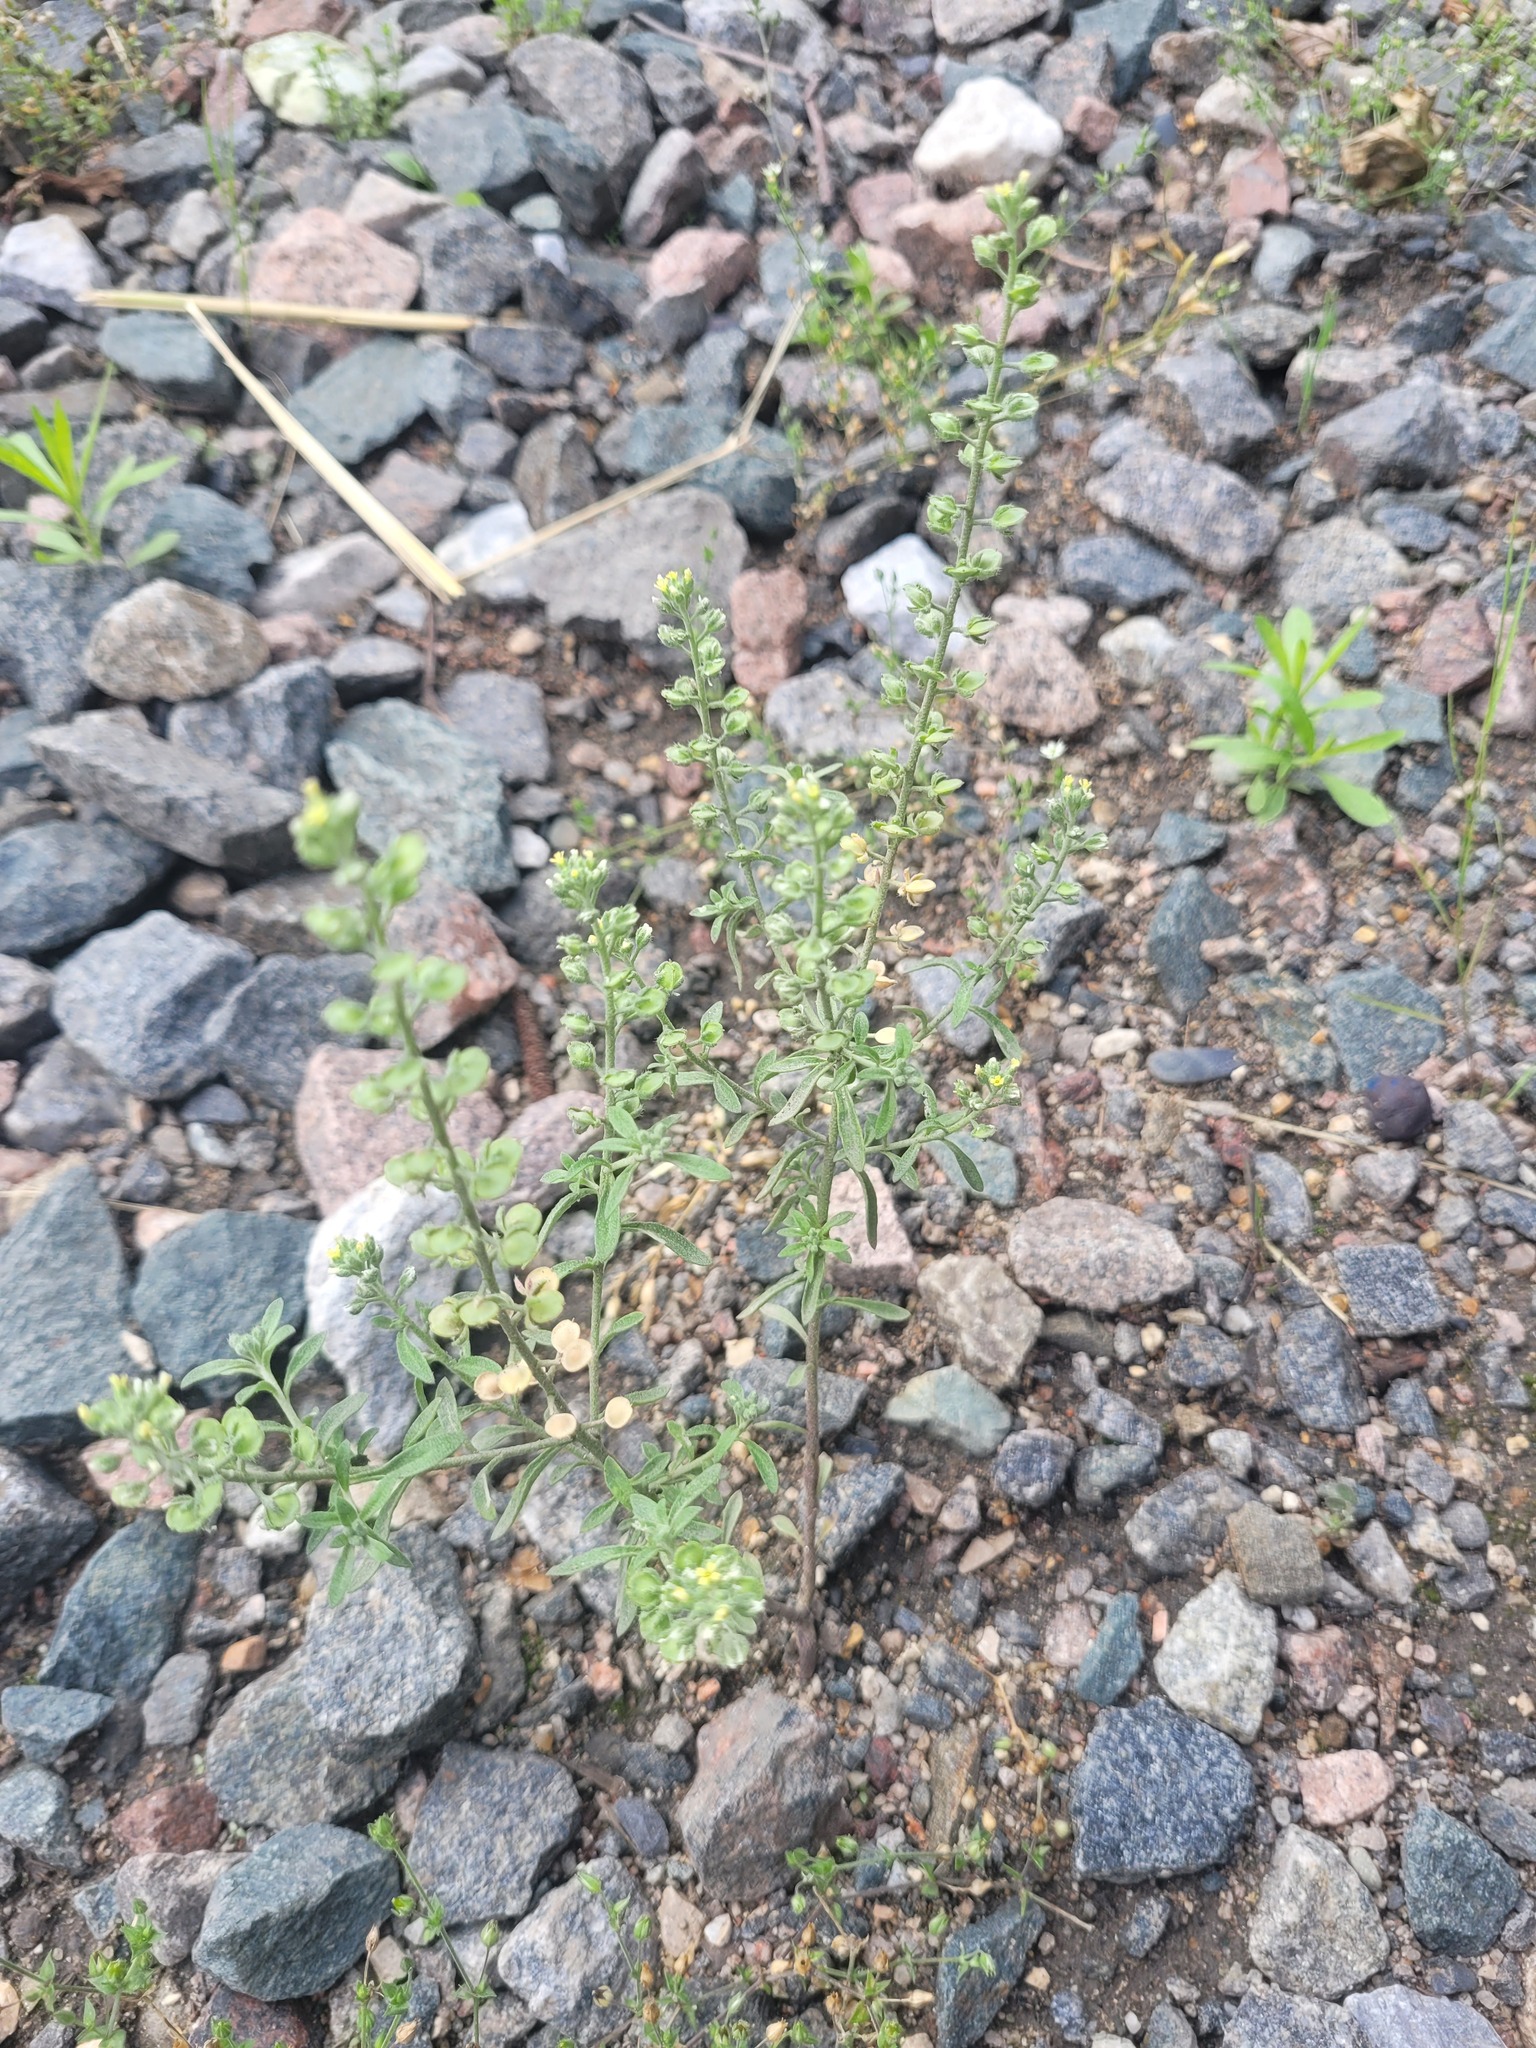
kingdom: Plantae
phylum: Tracheophyta
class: Magnoliopsida
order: Brassicales
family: Brassicaceae
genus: Alyssum
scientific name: Alyssum alyssoides
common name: Small alison
